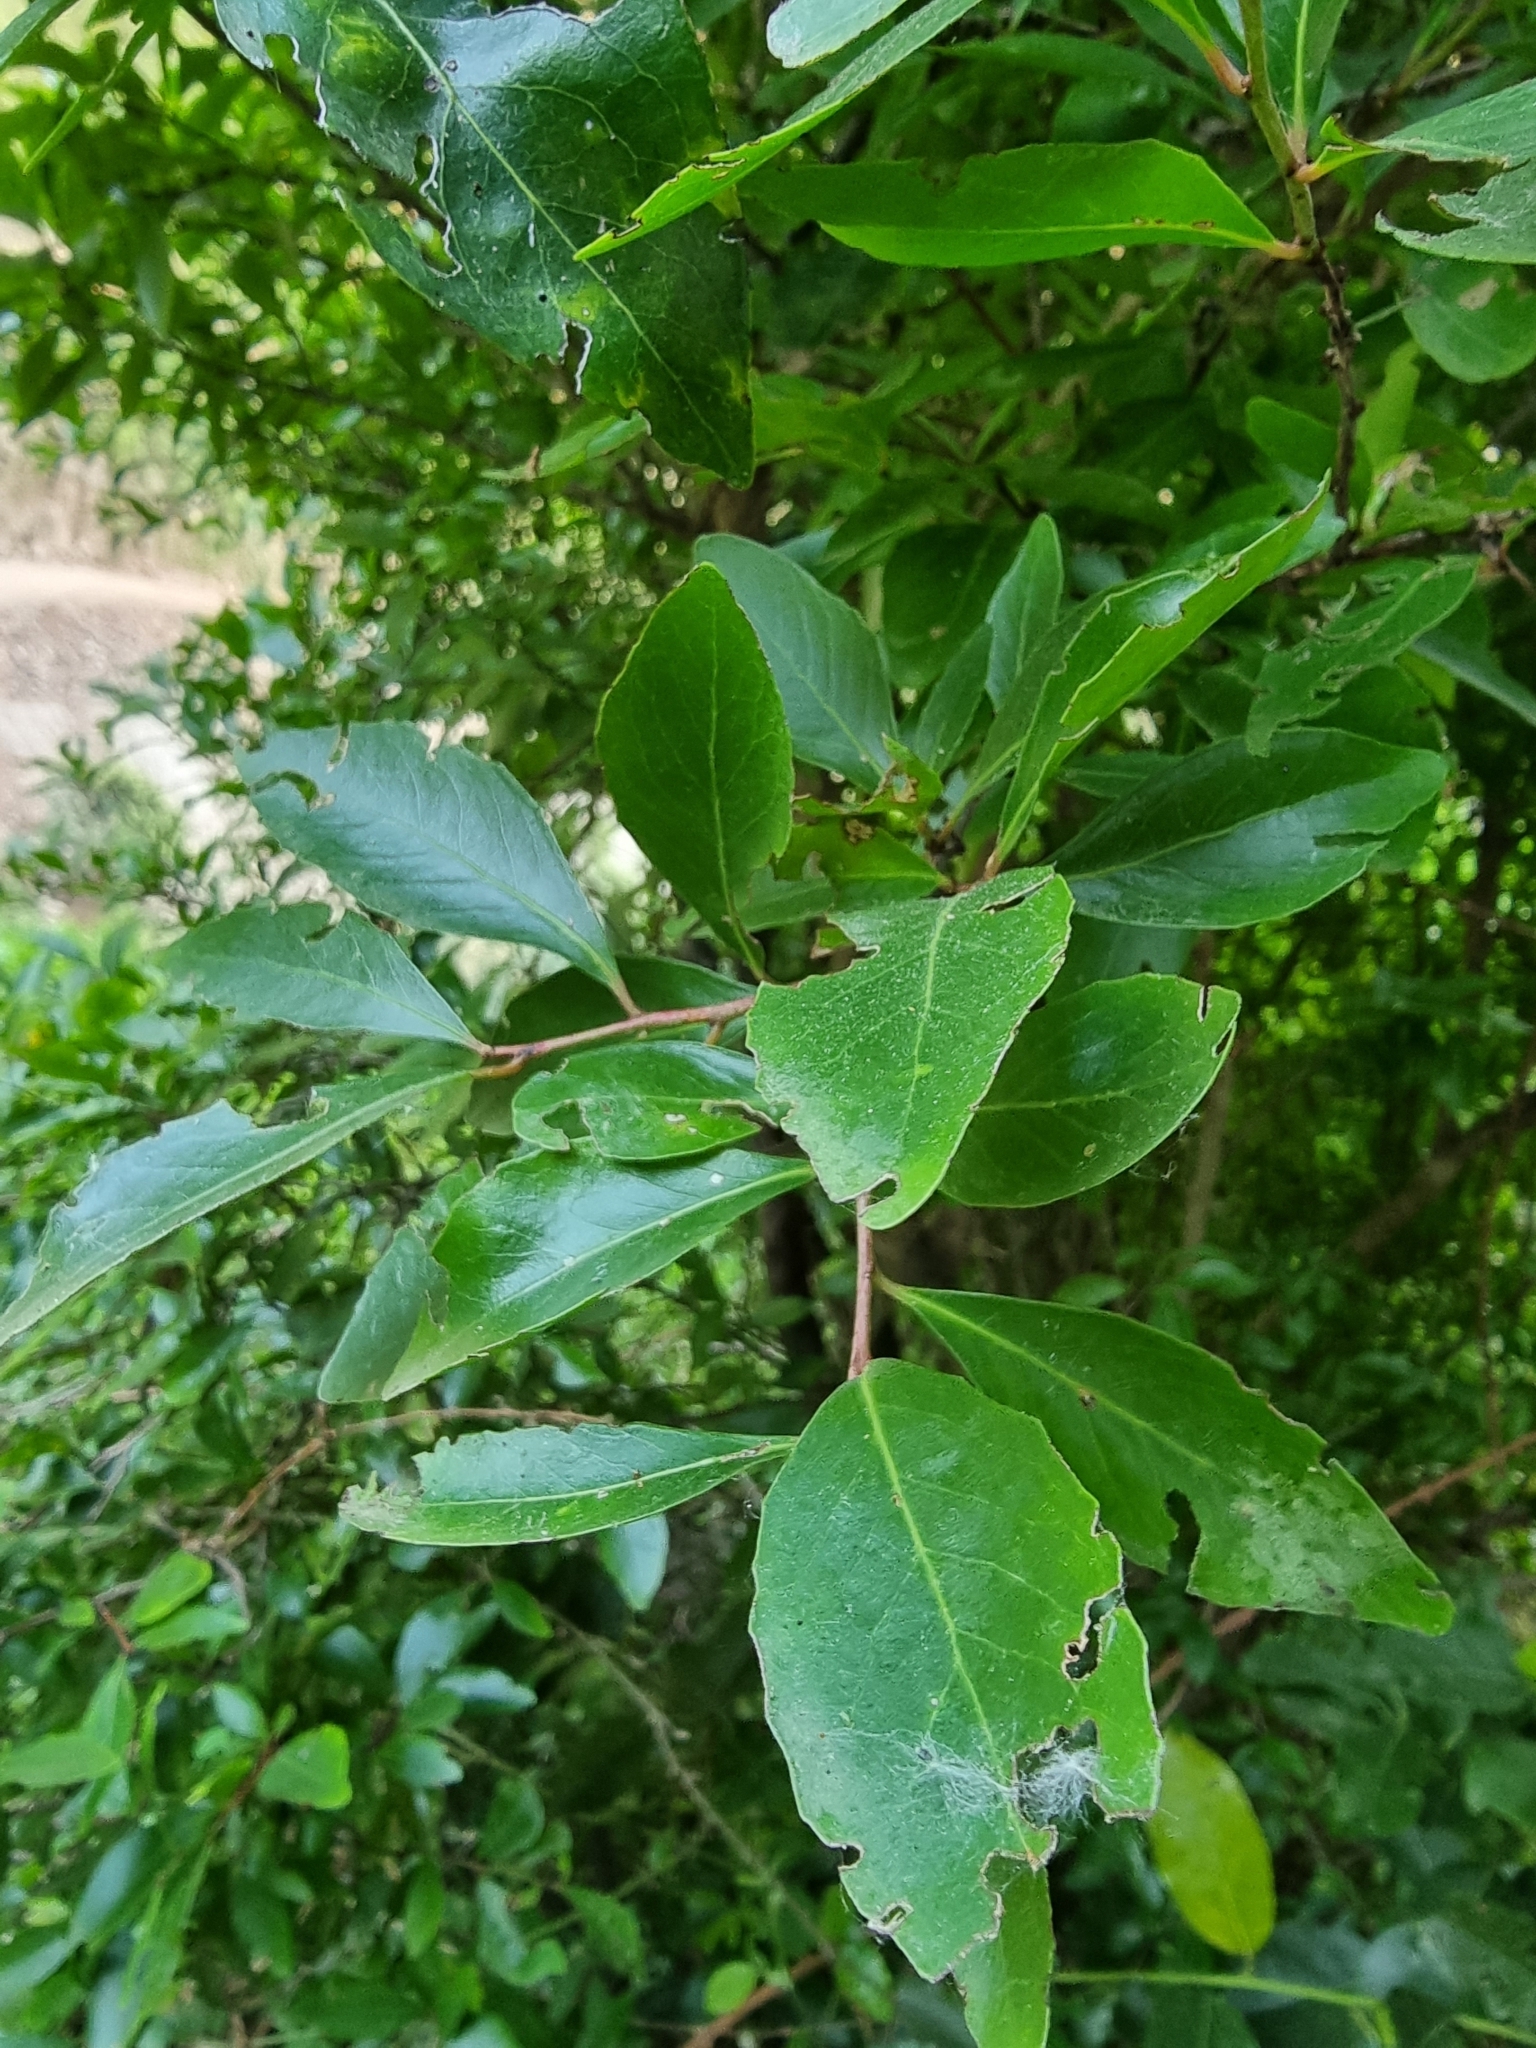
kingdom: Plantae
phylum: Tracheophyta
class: Magnoliopsida
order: Celastrales
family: Celastraceae
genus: Gymnosporia
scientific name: Gymnosporia dryandri
